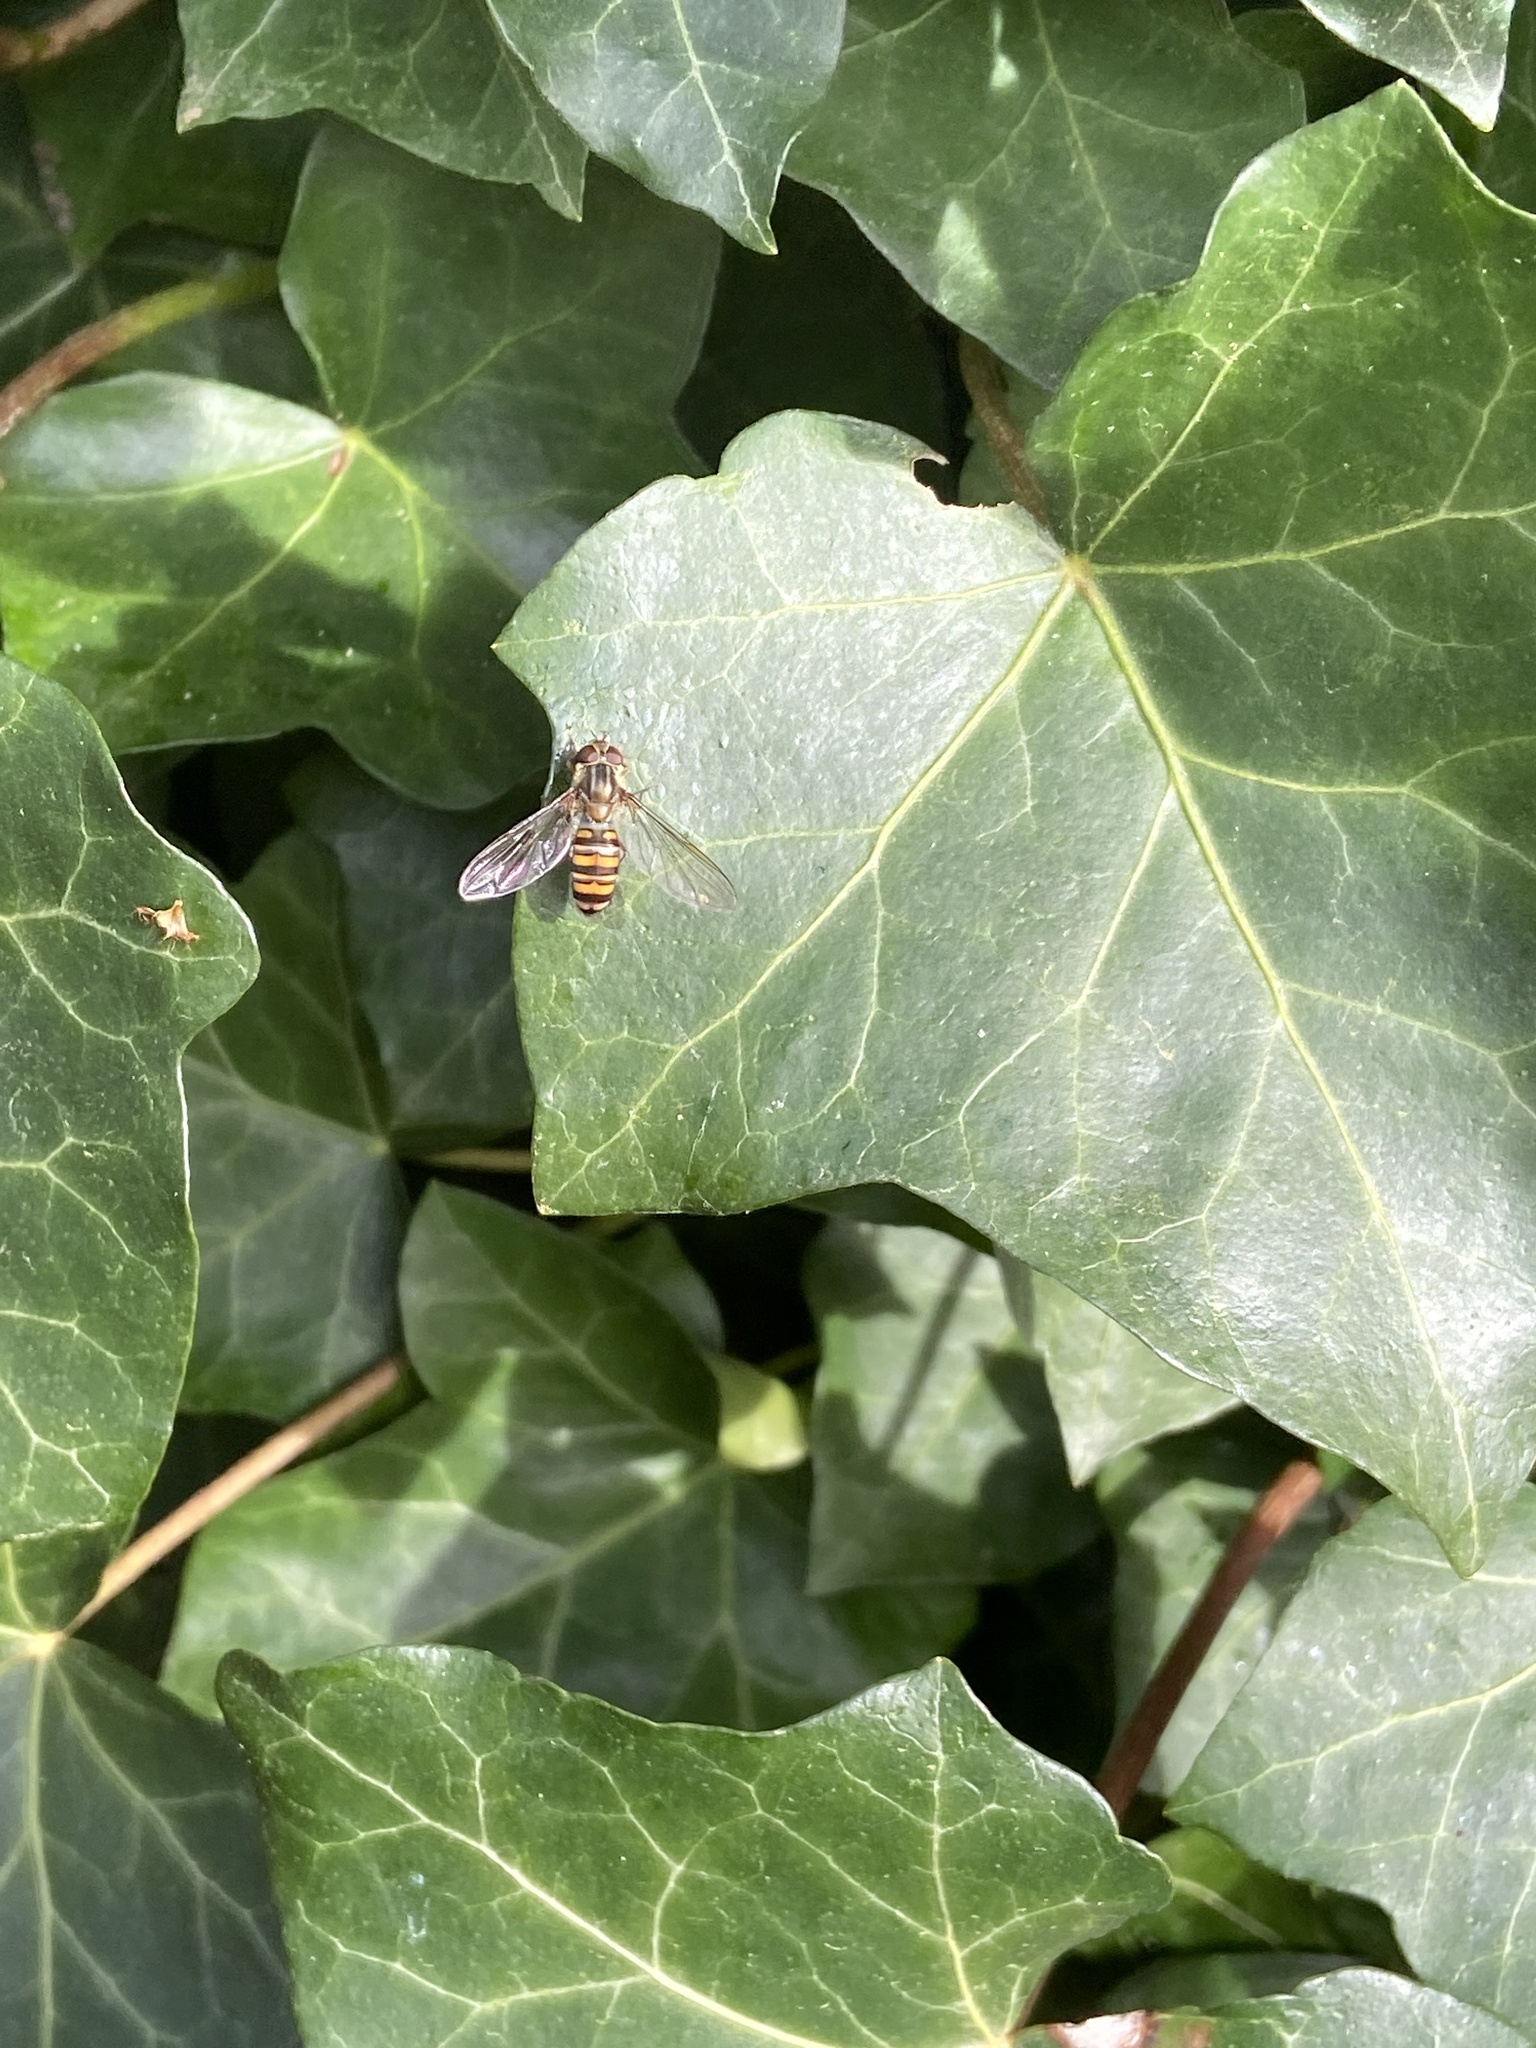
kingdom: Animalia
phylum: Arthropoda
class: Insecta
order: Diptera
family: Syrphidae
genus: Episyrphus
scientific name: Episyrphus balteatus
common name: Marmalade hoverfly
